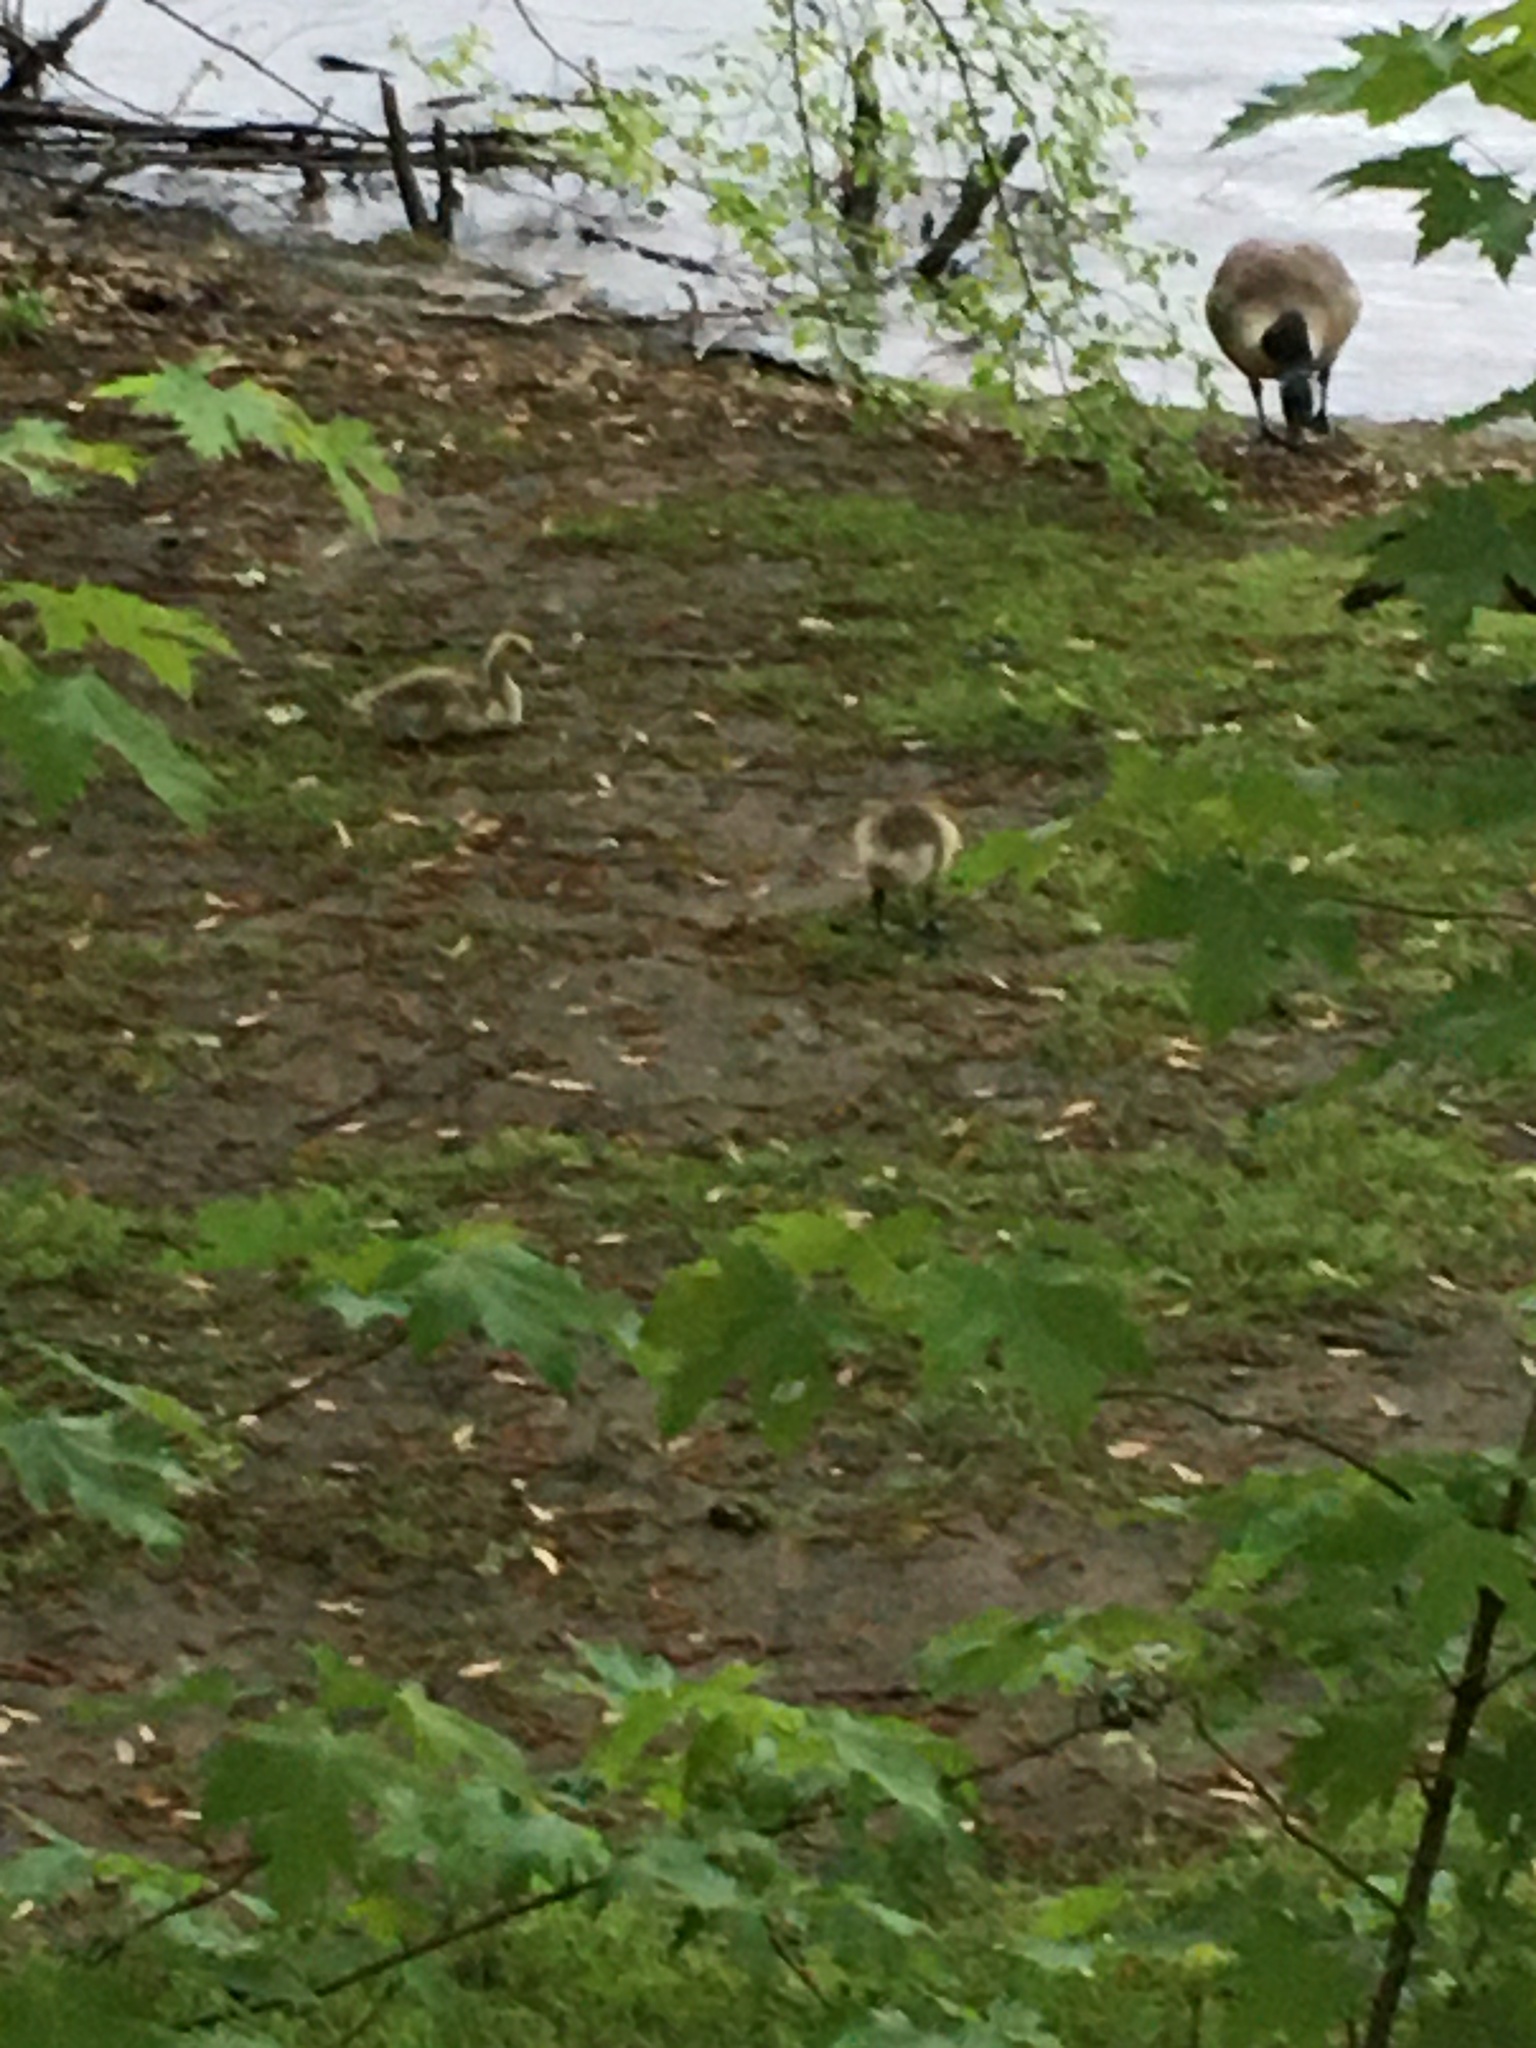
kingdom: Animalia
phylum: Chordata
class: Aves
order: Anseriformes
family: Anatidae
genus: Branta
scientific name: Branta canadensis
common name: Canada goose
